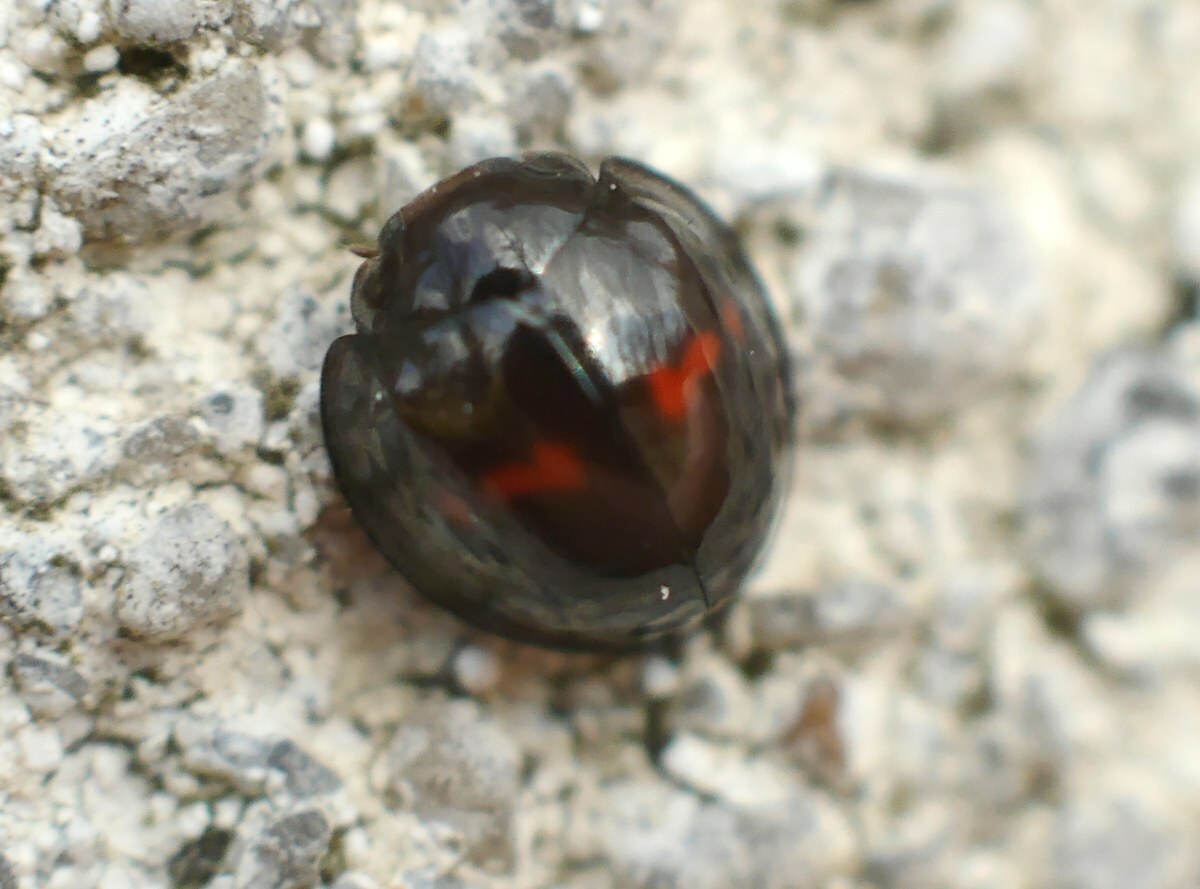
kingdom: Animalia
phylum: Arthropoda
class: Insecta
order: Coleoptera
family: Coccinellidae
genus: Chilocorus
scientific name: Chilocorus bipustulatus
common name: Heather ladybird
